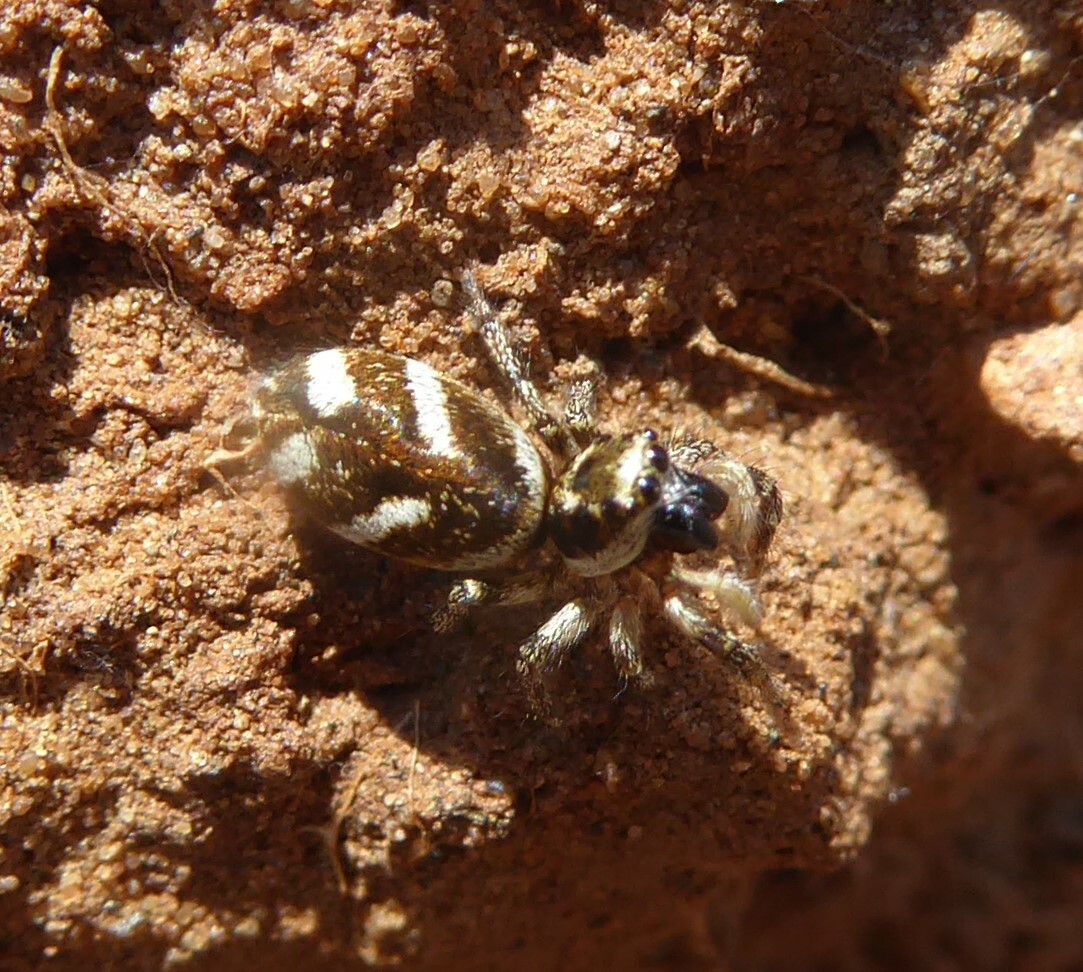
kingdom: Animalia
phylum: Arthropoda
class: Arachnida
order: Araneae
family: Salticidae
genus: Salticus
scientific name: Salticus scenicus
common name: Zebra jumper
